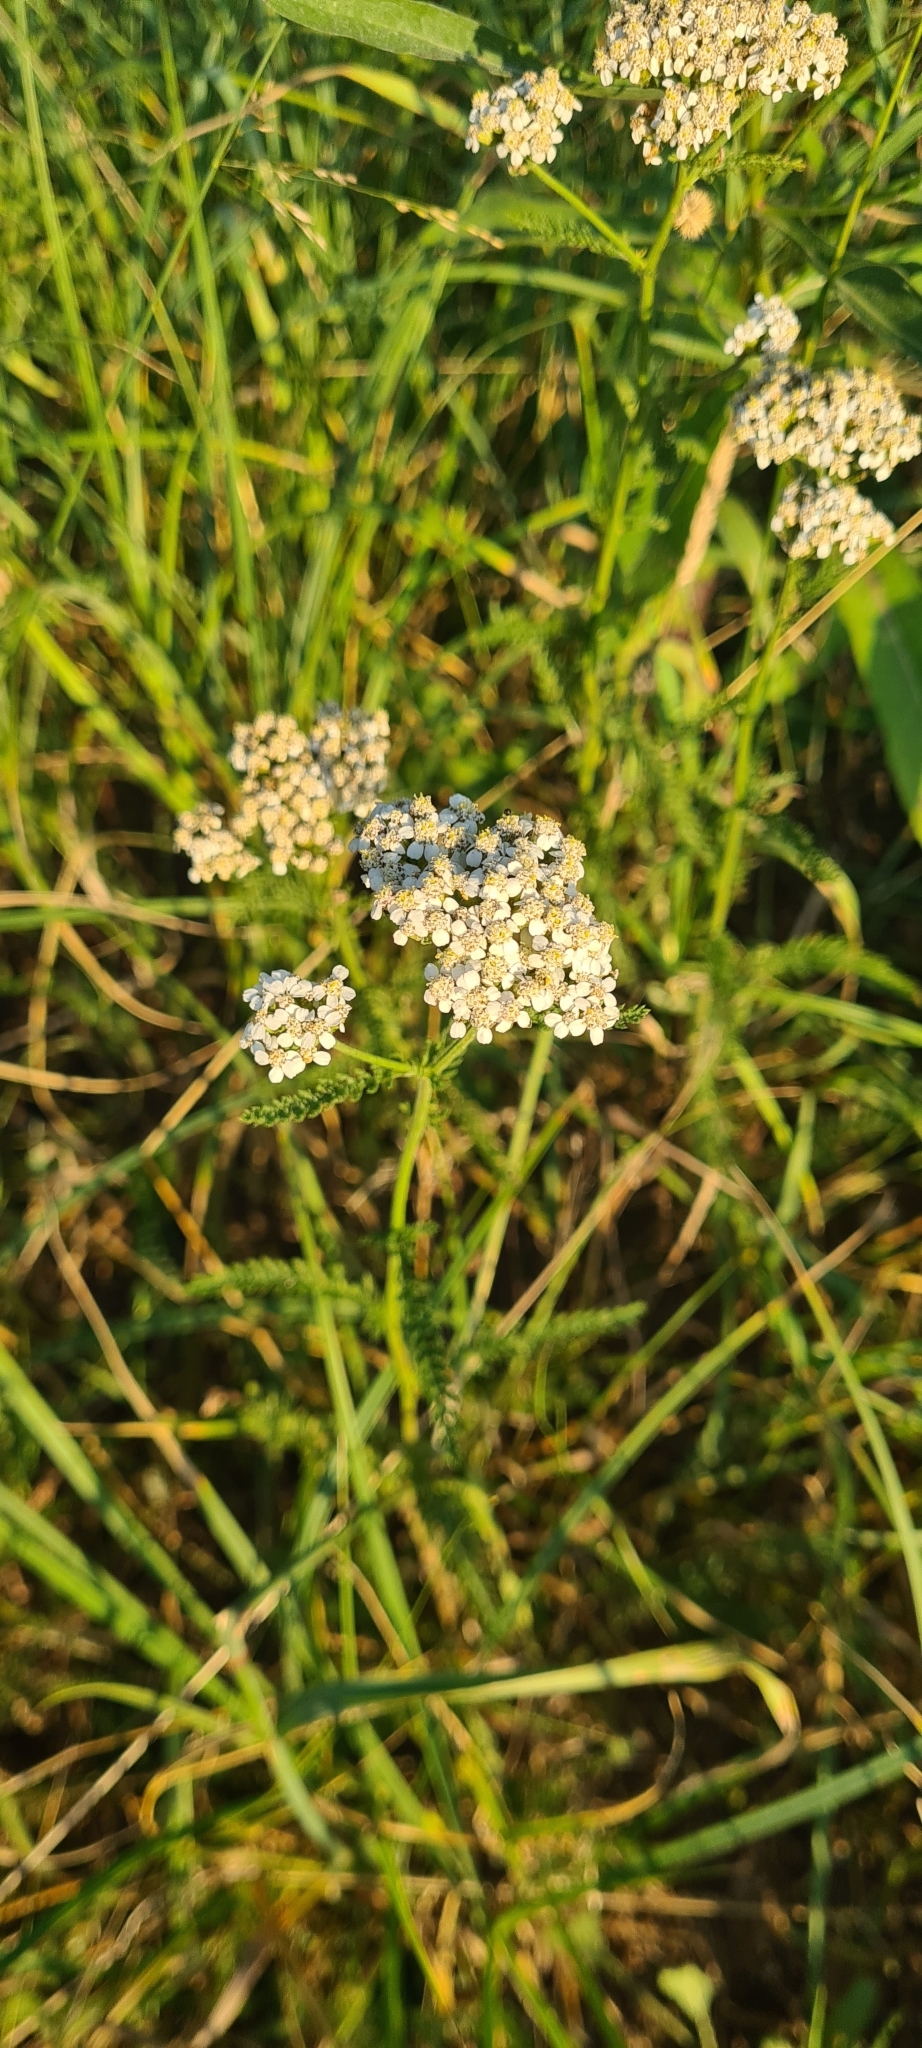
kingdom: Plantae
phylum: Tracheophyta
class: Magnoliopsida
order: Asterales
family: Asteraceae
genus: Achillea
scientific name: Achillea millefolium
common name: Yarrow
